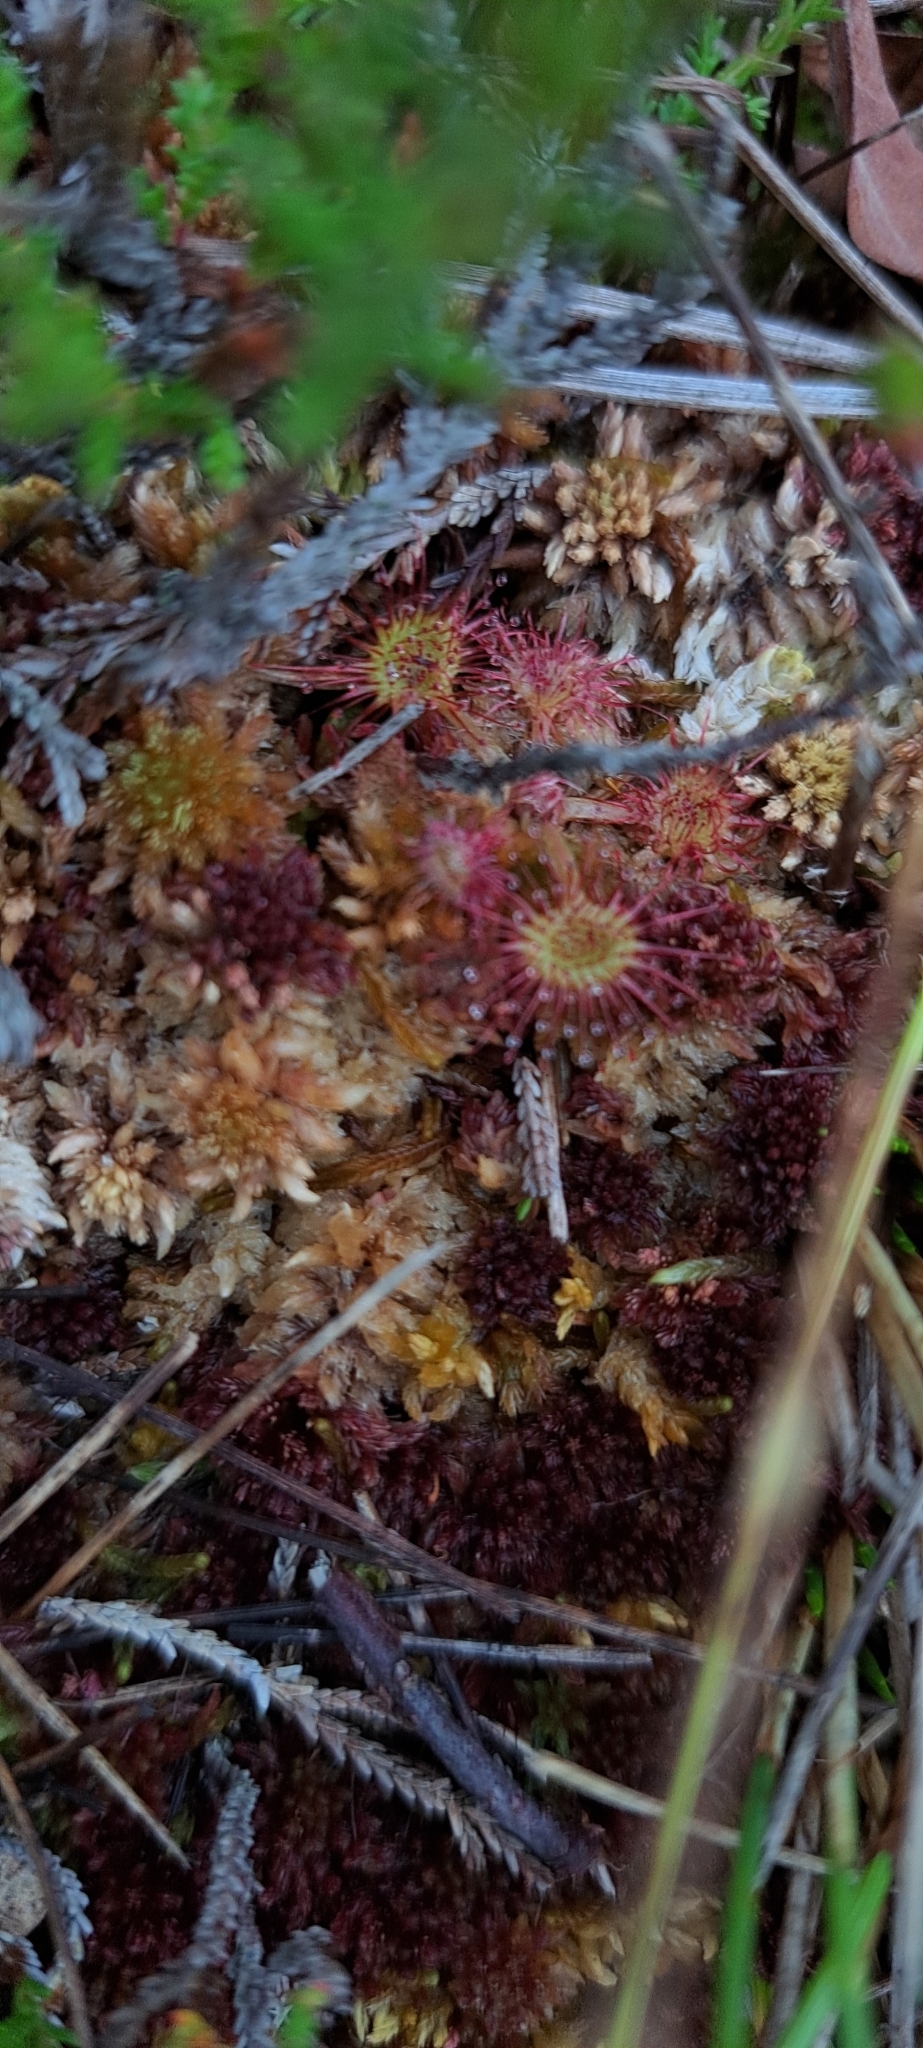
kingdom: Plantae
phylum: Tracheophyta
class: Magnoliopsida
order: Caryophyllales
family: Droseraceae
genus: Drosera
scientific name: Drosera rotundifolia
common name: Round-leaved sundew
